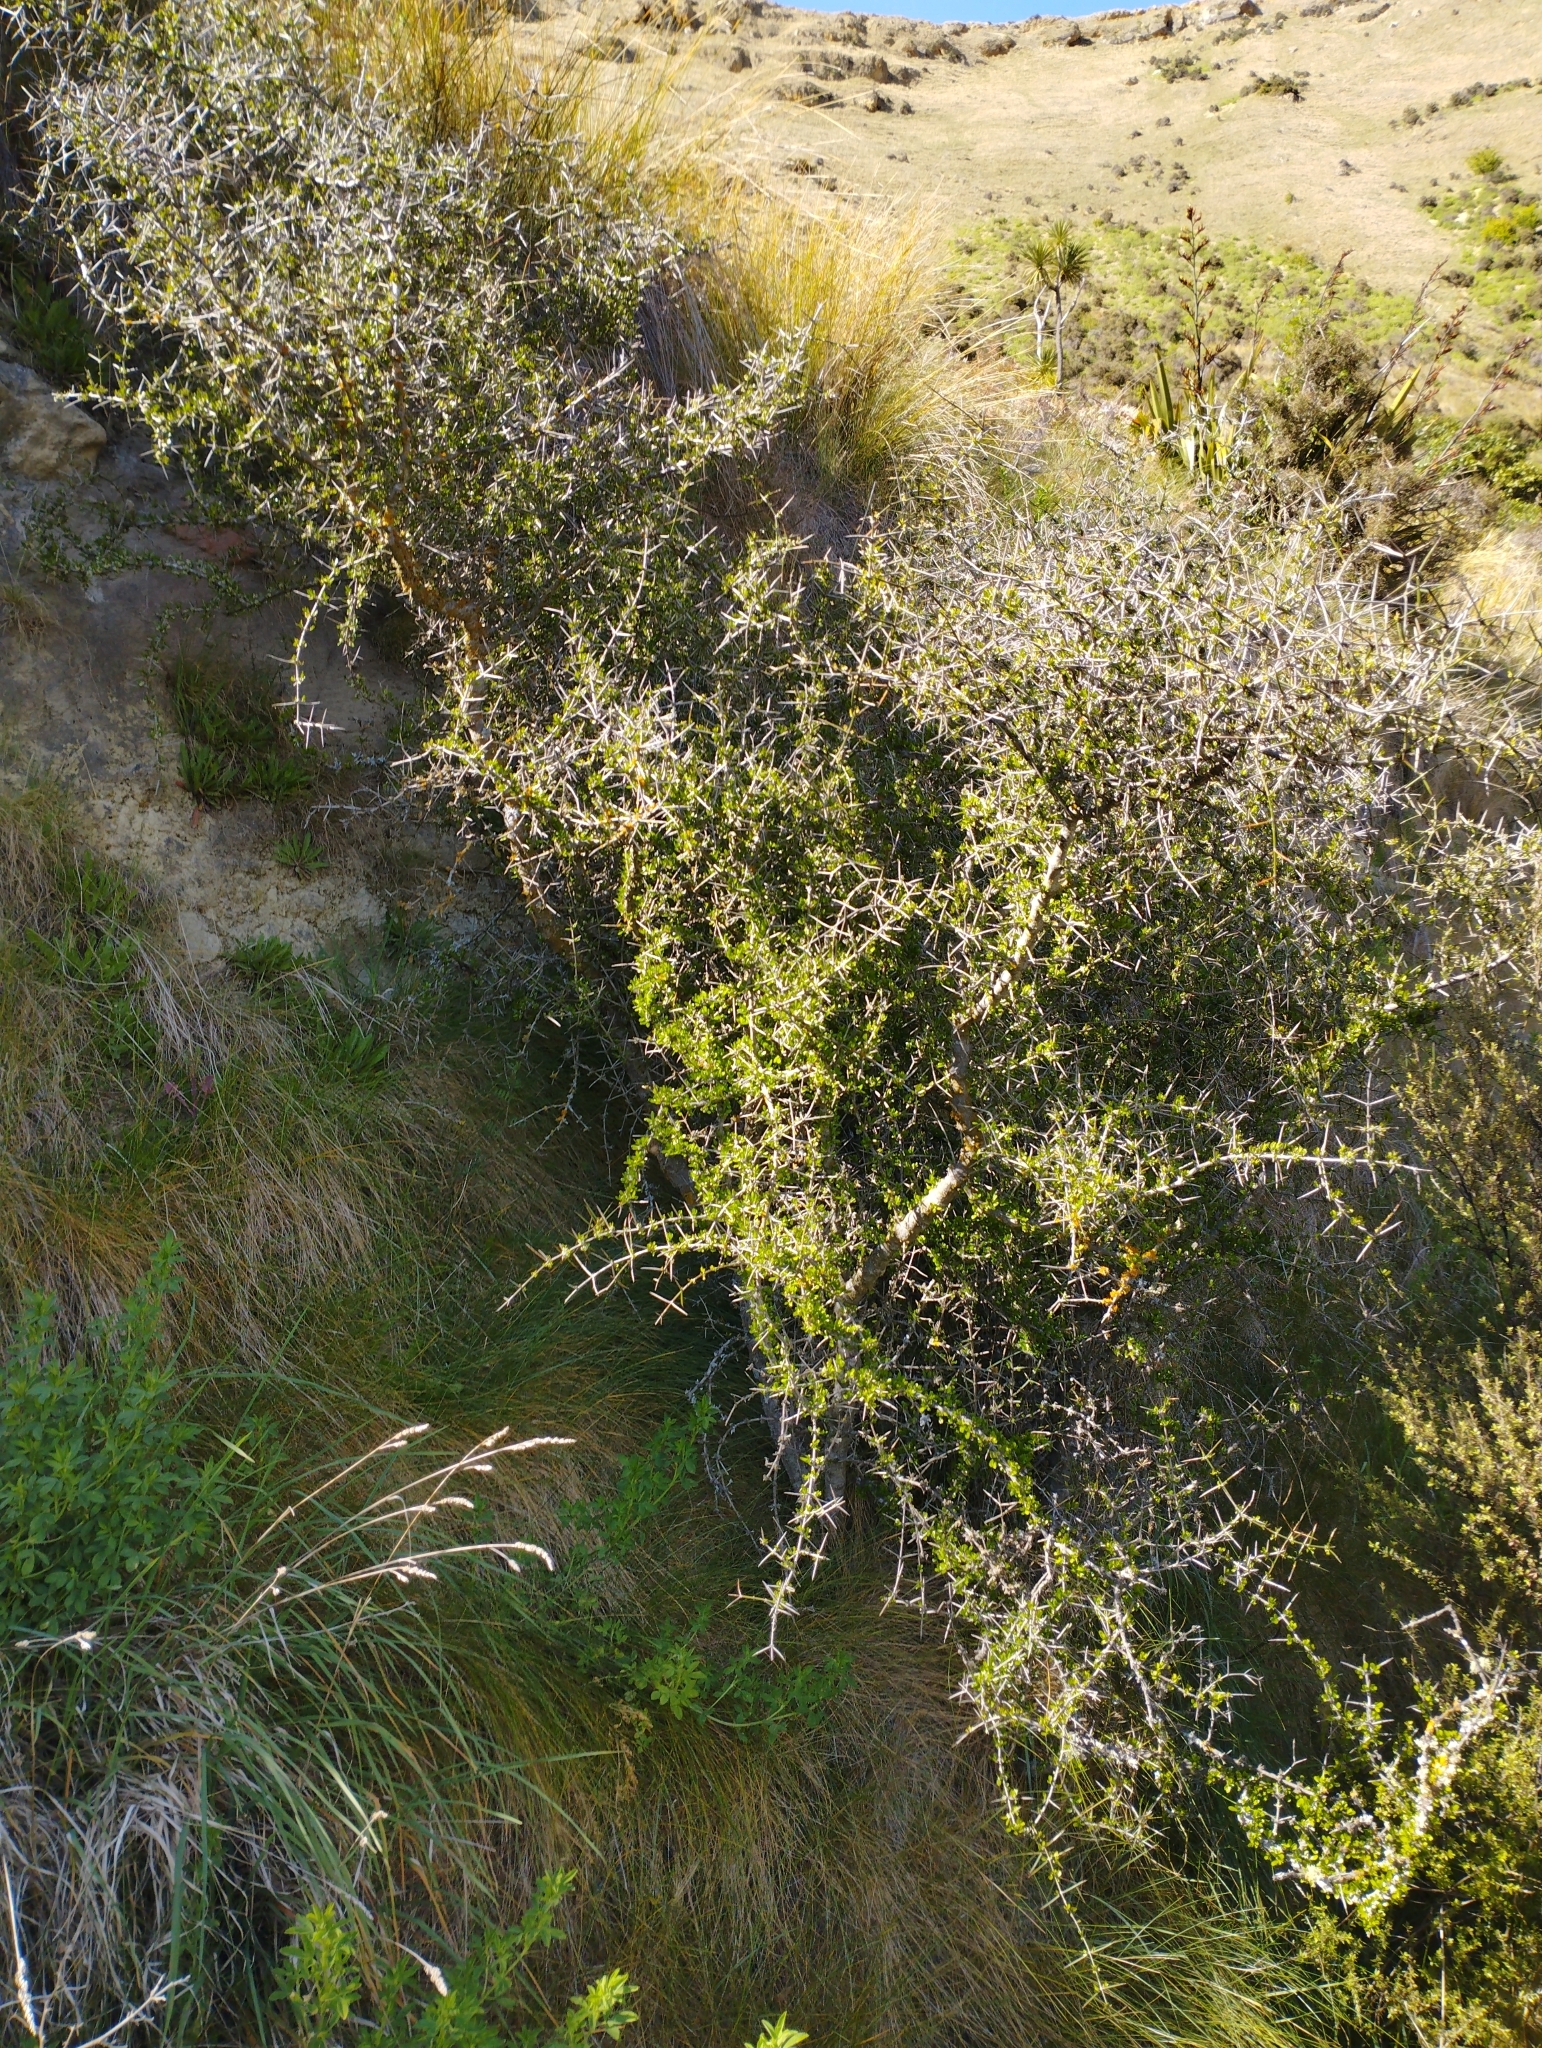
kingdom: Plantae
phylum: Tracheophyta
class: Magnoliopsida
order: Rosales
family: Rhamnaceae
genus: Discaria
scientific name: Discaria toumatou
